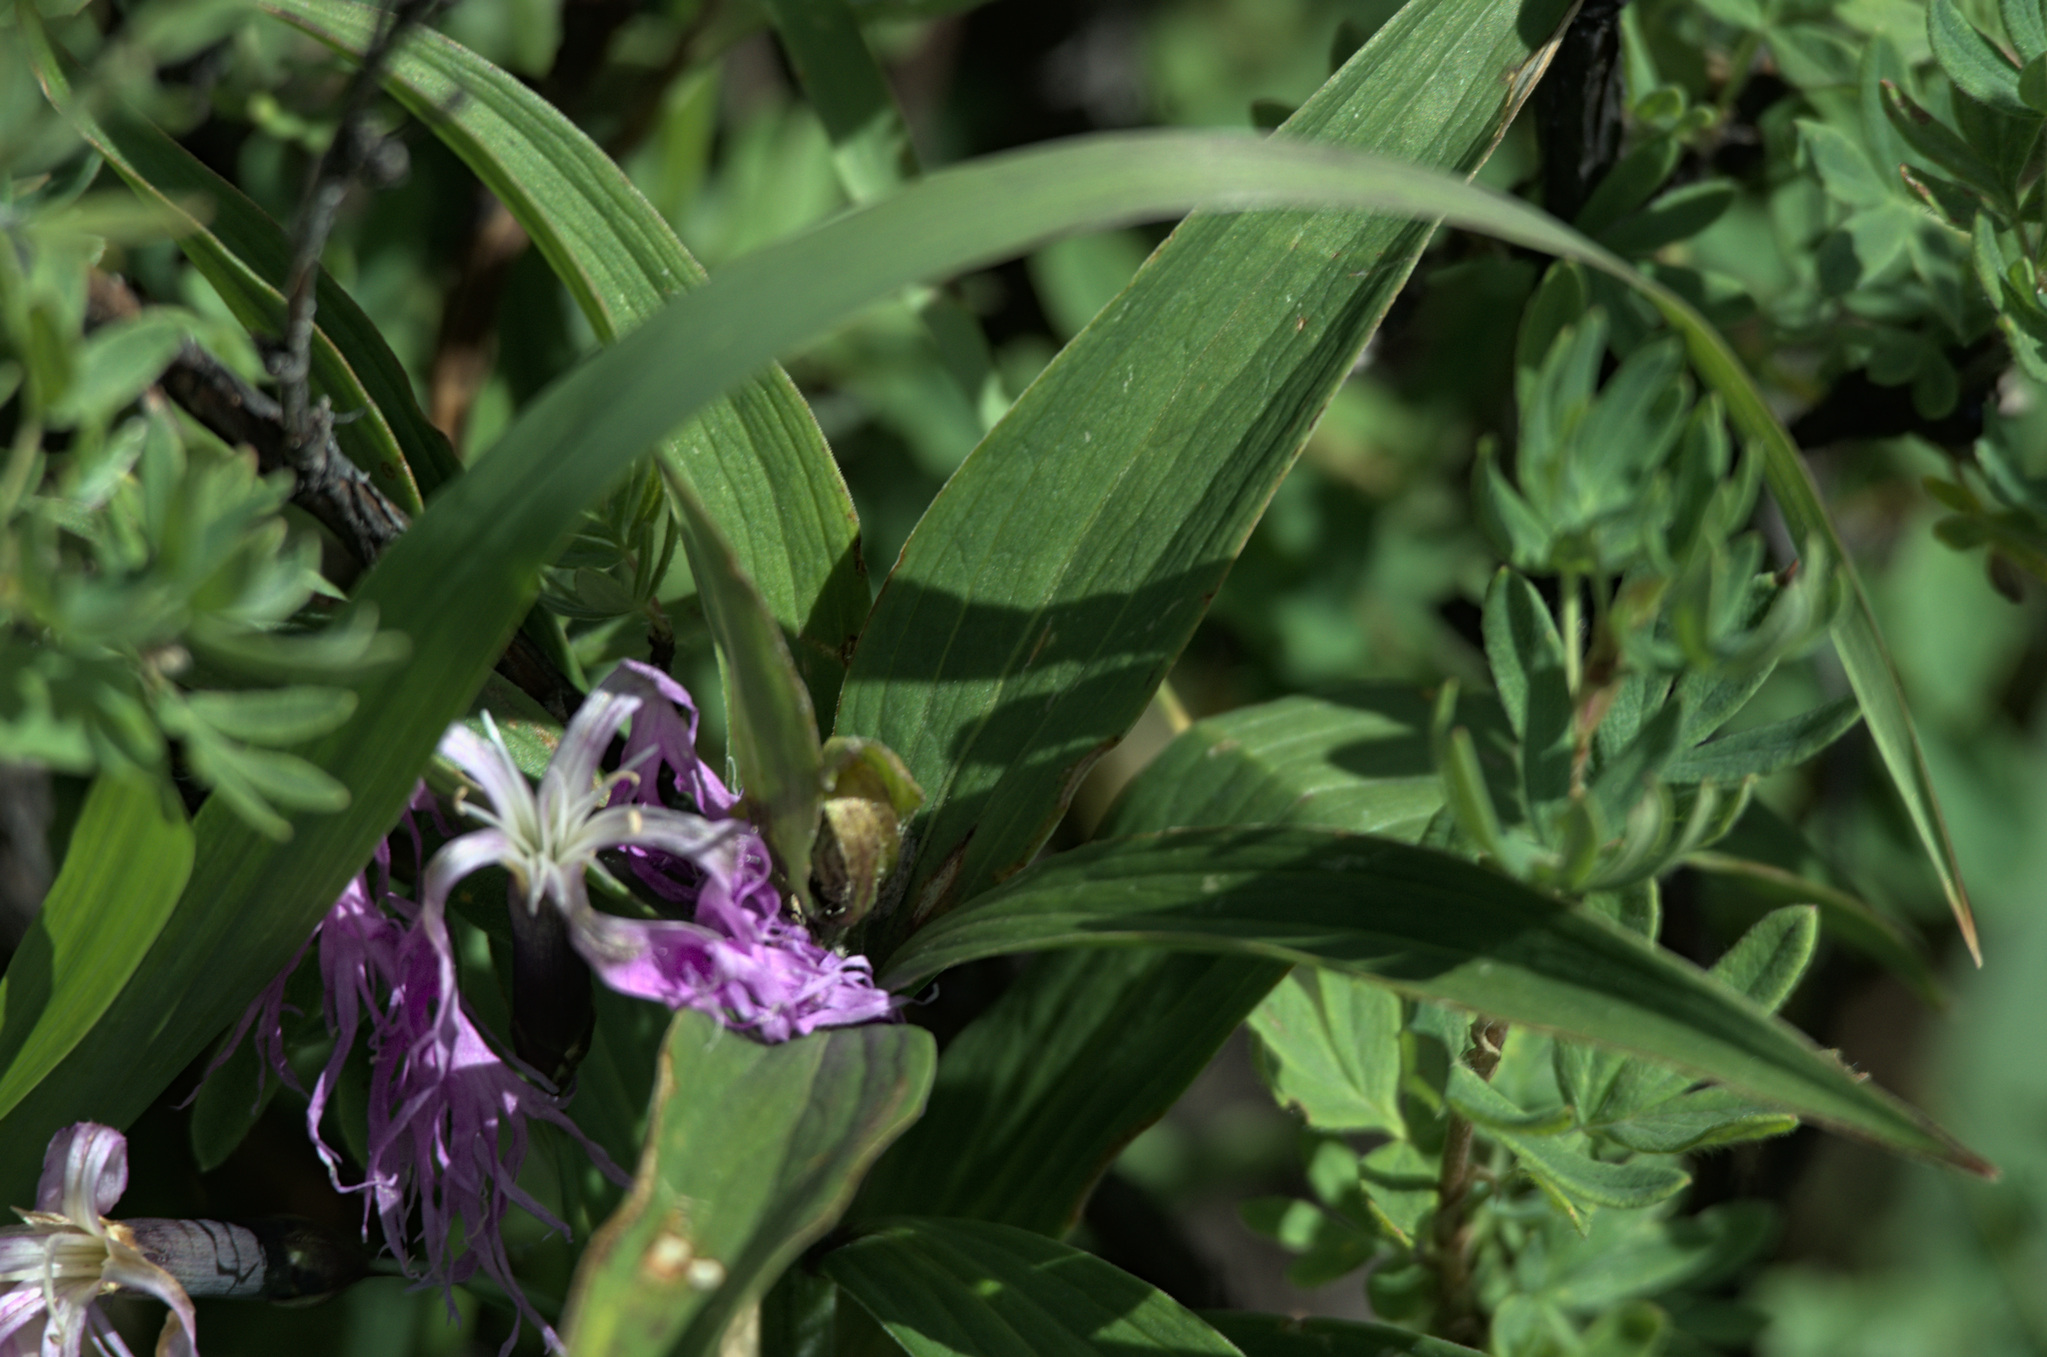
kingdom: Plantae
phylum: Tracheophyta
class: Magnoliopsida
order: Caryophyllales
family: Caryophyllaceae
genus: Dianthus
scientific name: Dianthus superbus
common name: Fringed pink
